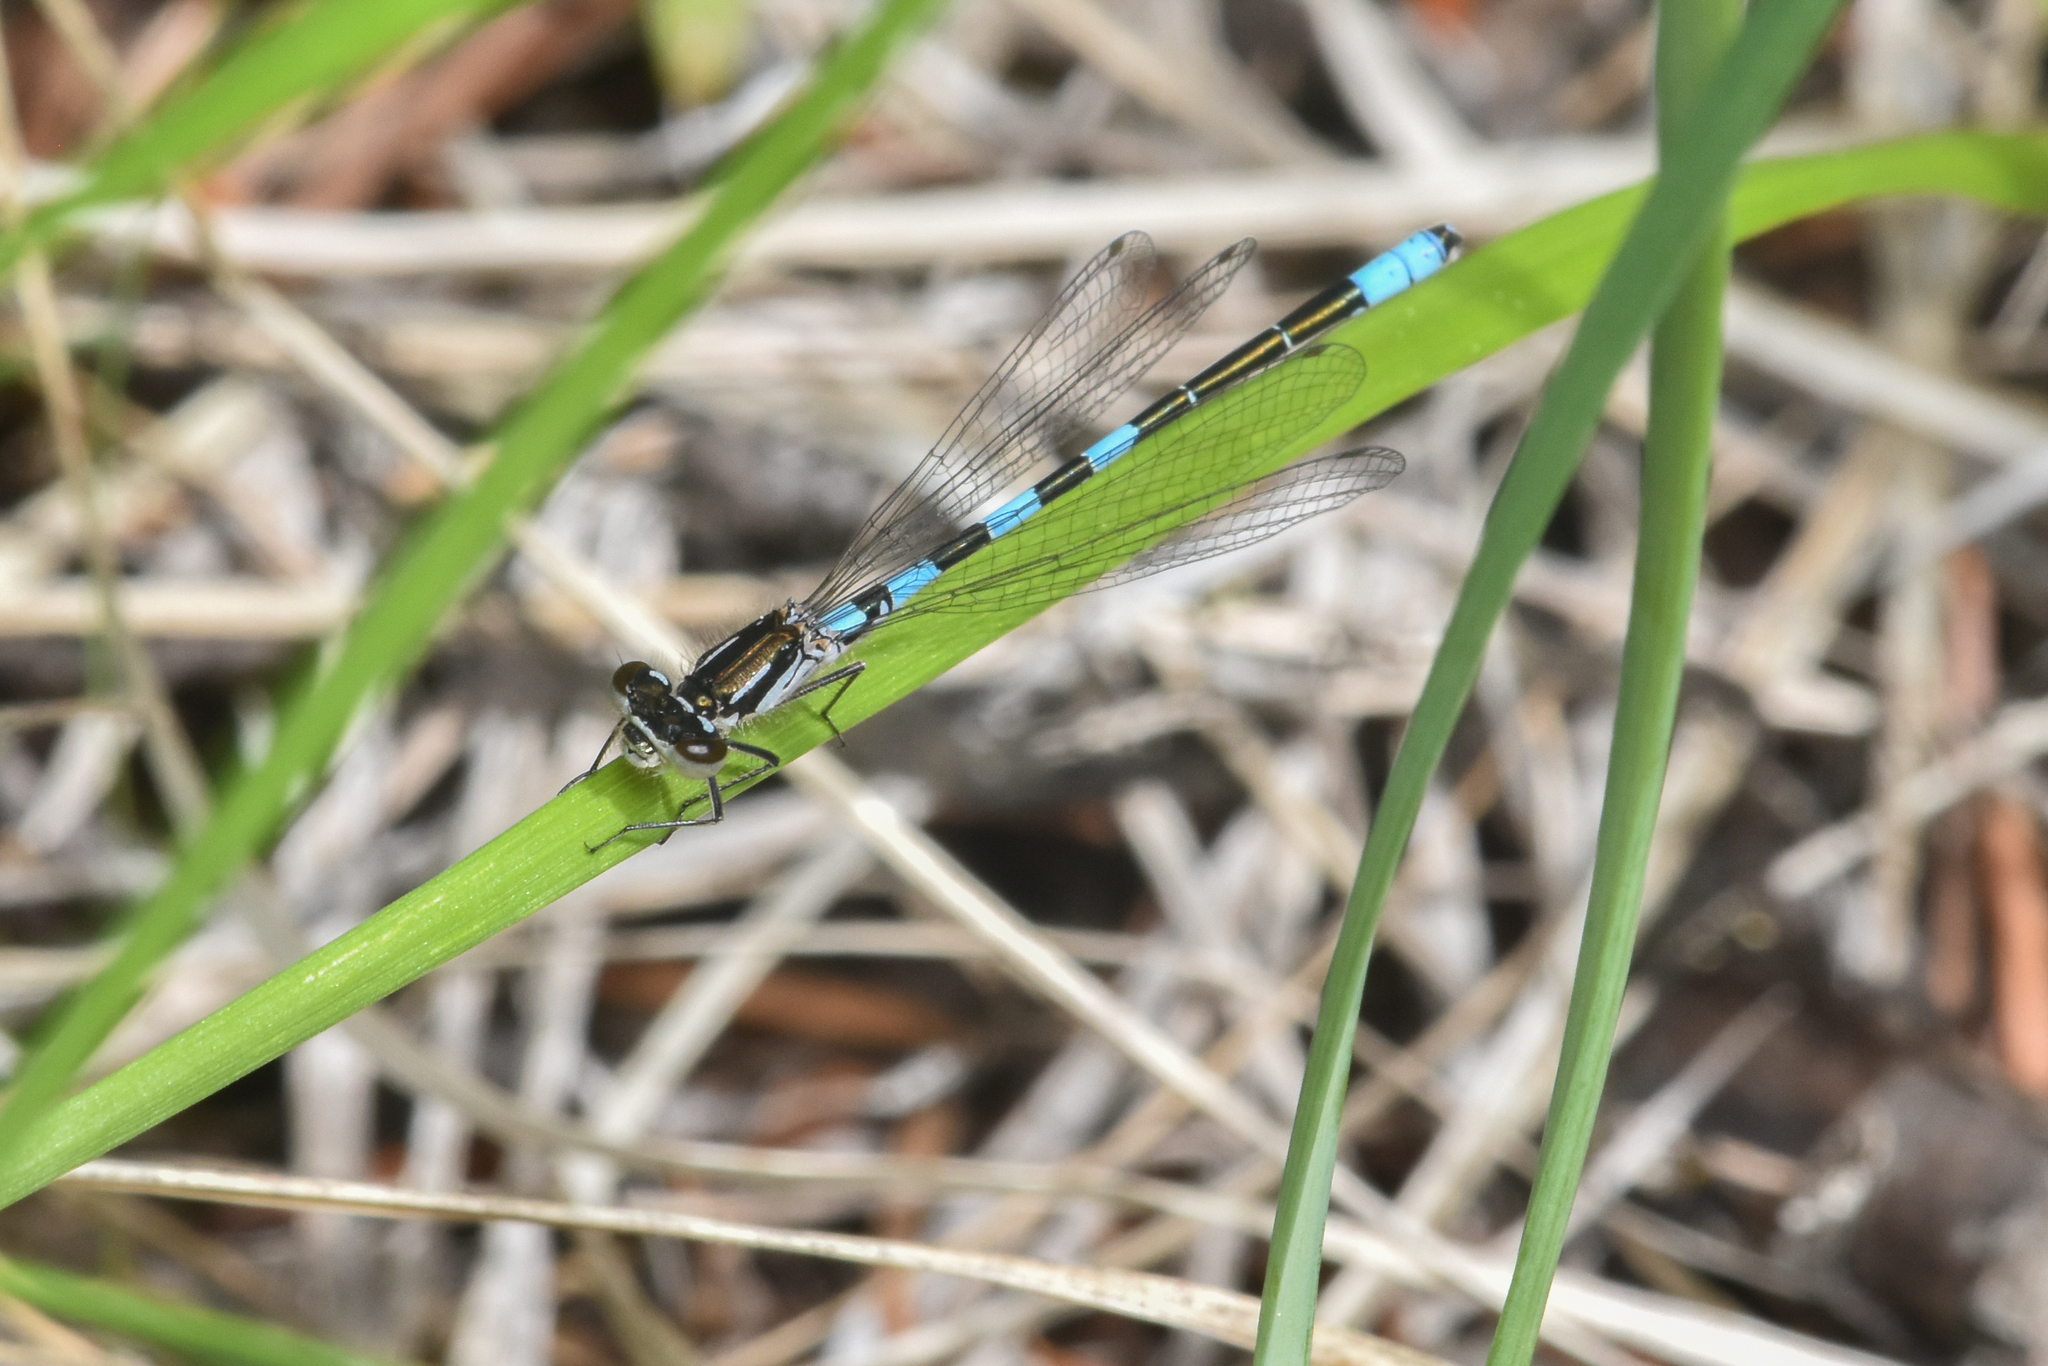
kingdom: Animalia
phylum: Arthropoda
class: Insecta
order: Odonata
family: Coenagrionidae
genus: Coenagrion
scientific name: Coenagrion resolutum
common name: Taiga bluet
